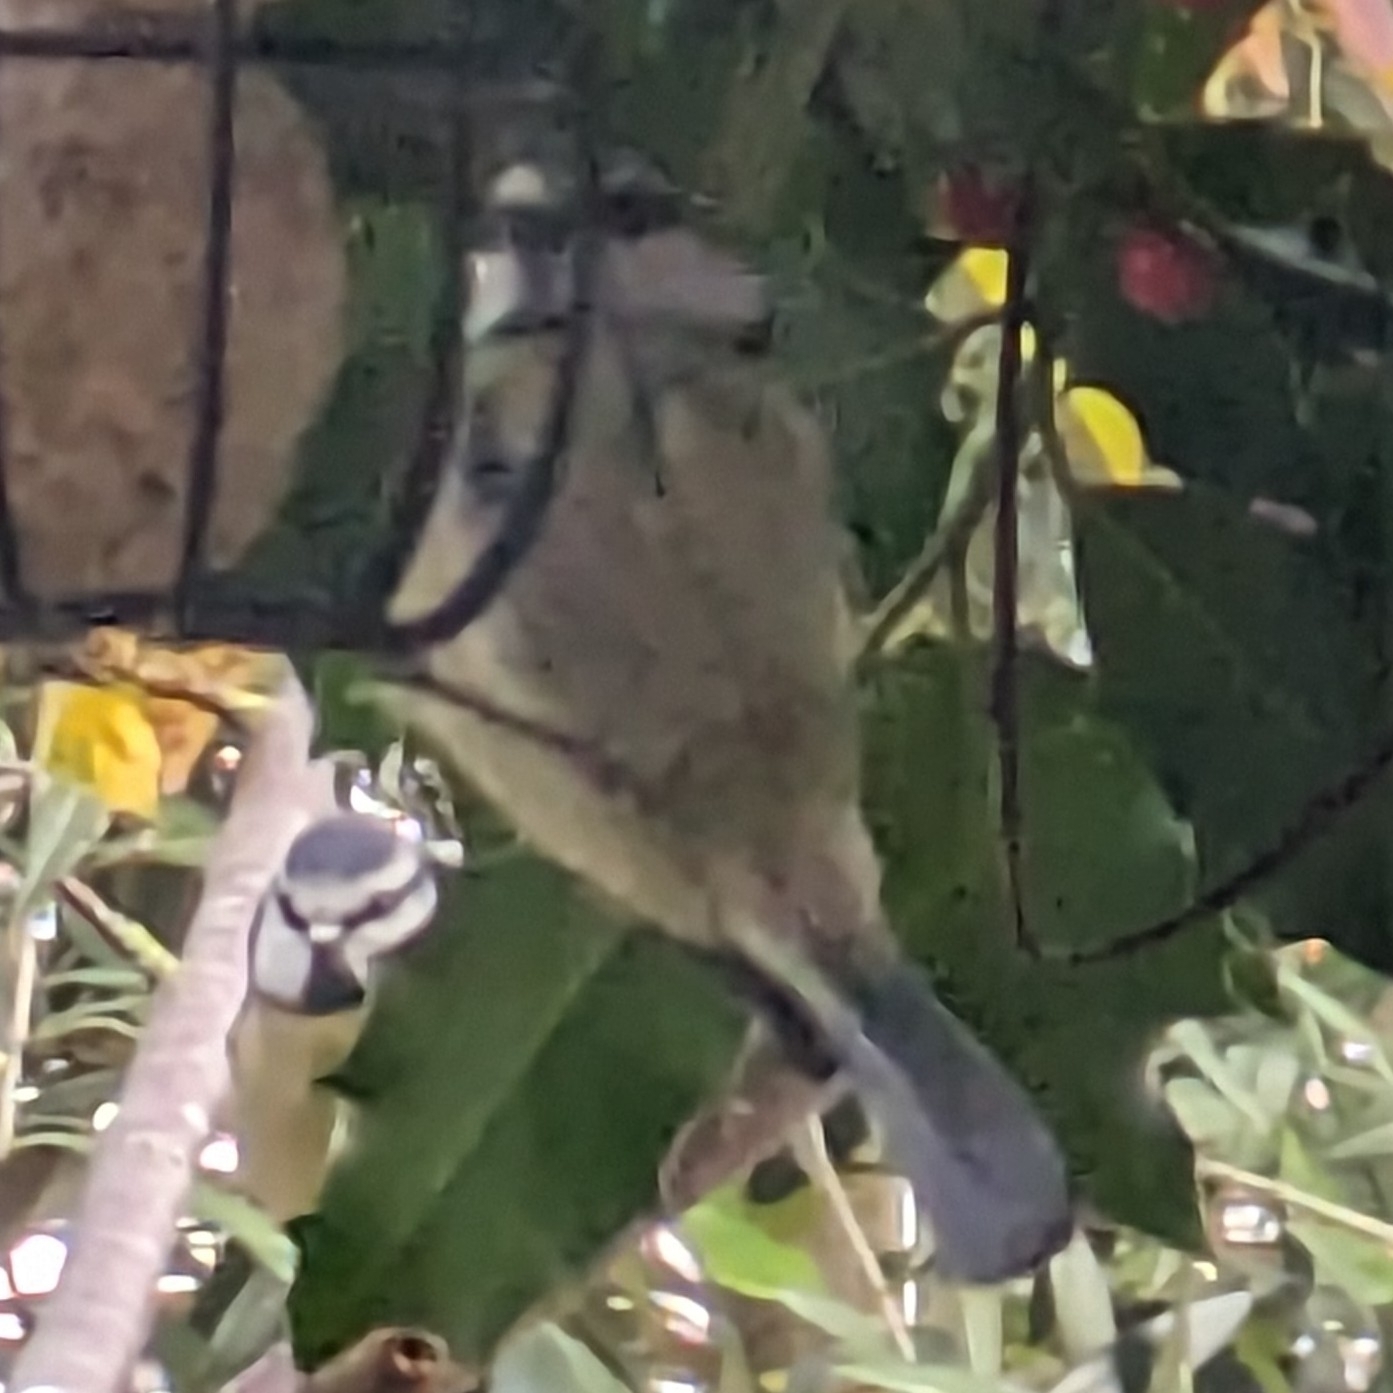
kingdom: Animalia
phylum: Chordata
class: Aves
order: Passeriformes
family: Paridae
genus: Cyanistes
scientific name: Cyanistes caeruleus
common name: Eurasian blue tit
